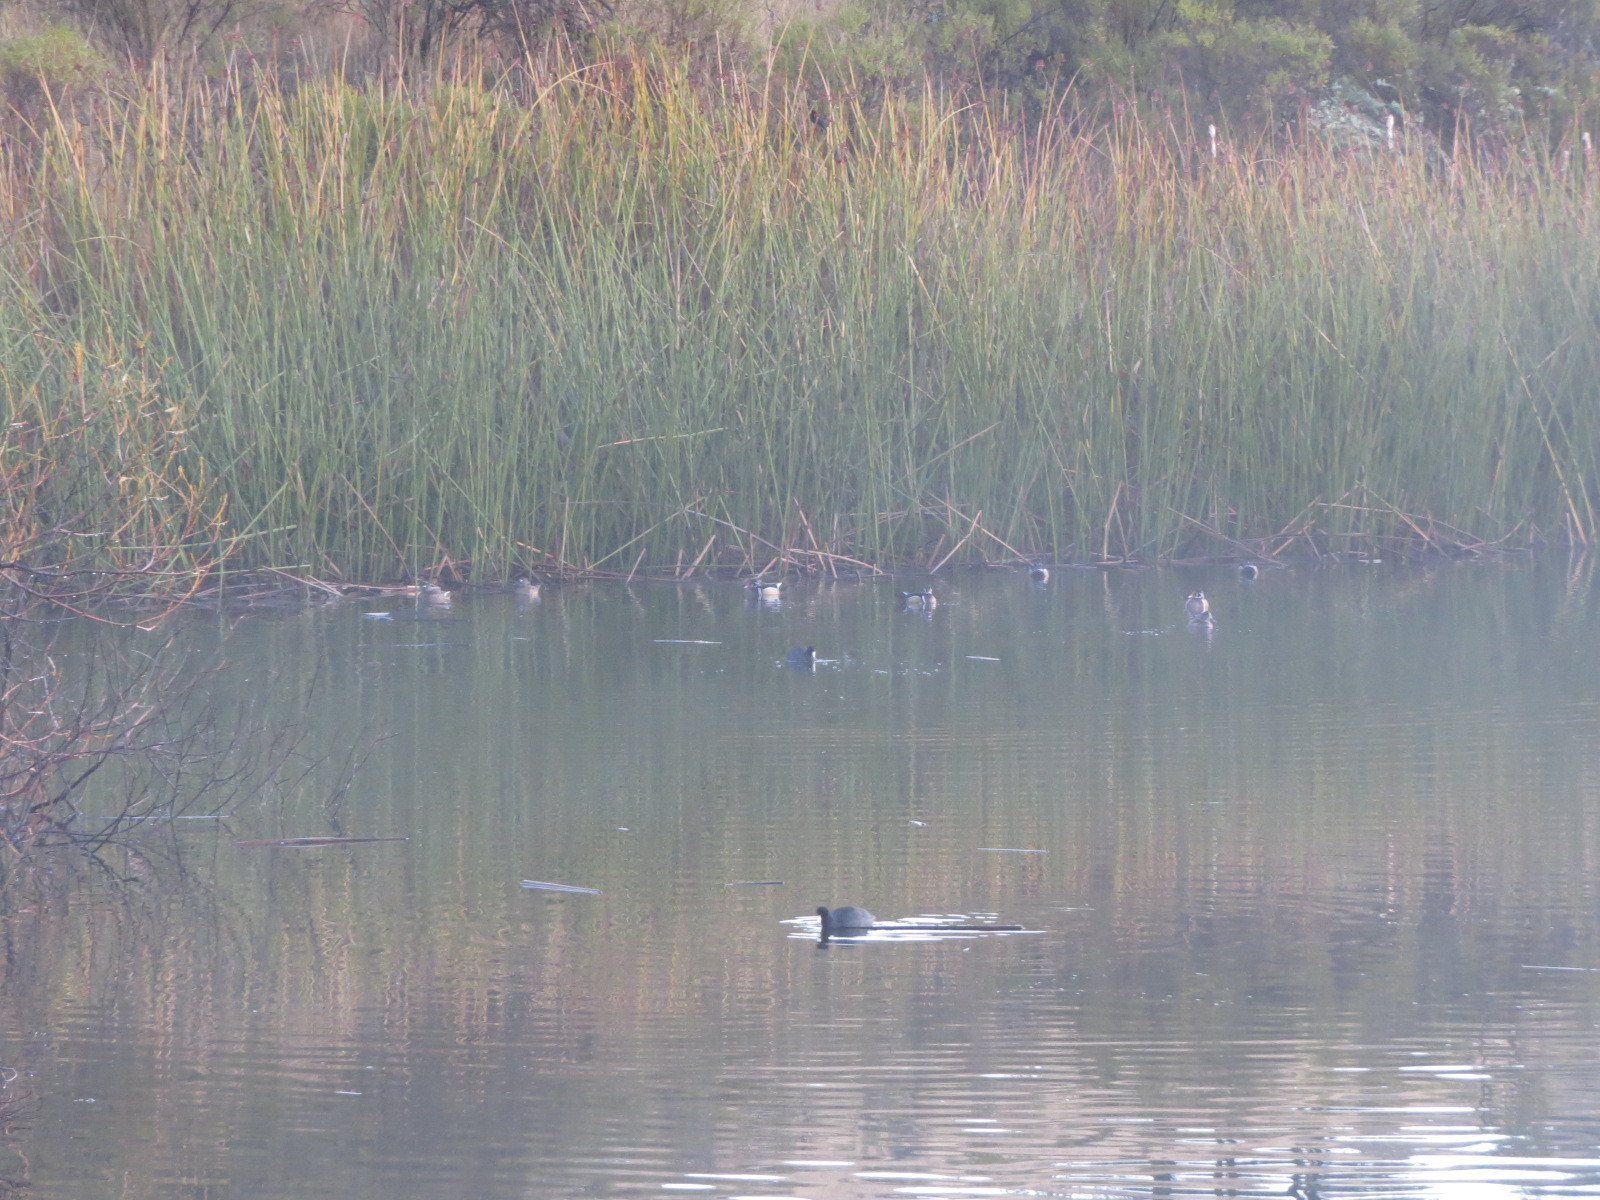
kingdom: Animalia
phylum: Chordata
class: Aves
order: Anseriformes
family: Anatidae
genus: Aix
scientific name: Aix sponsa
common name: Wood duck
